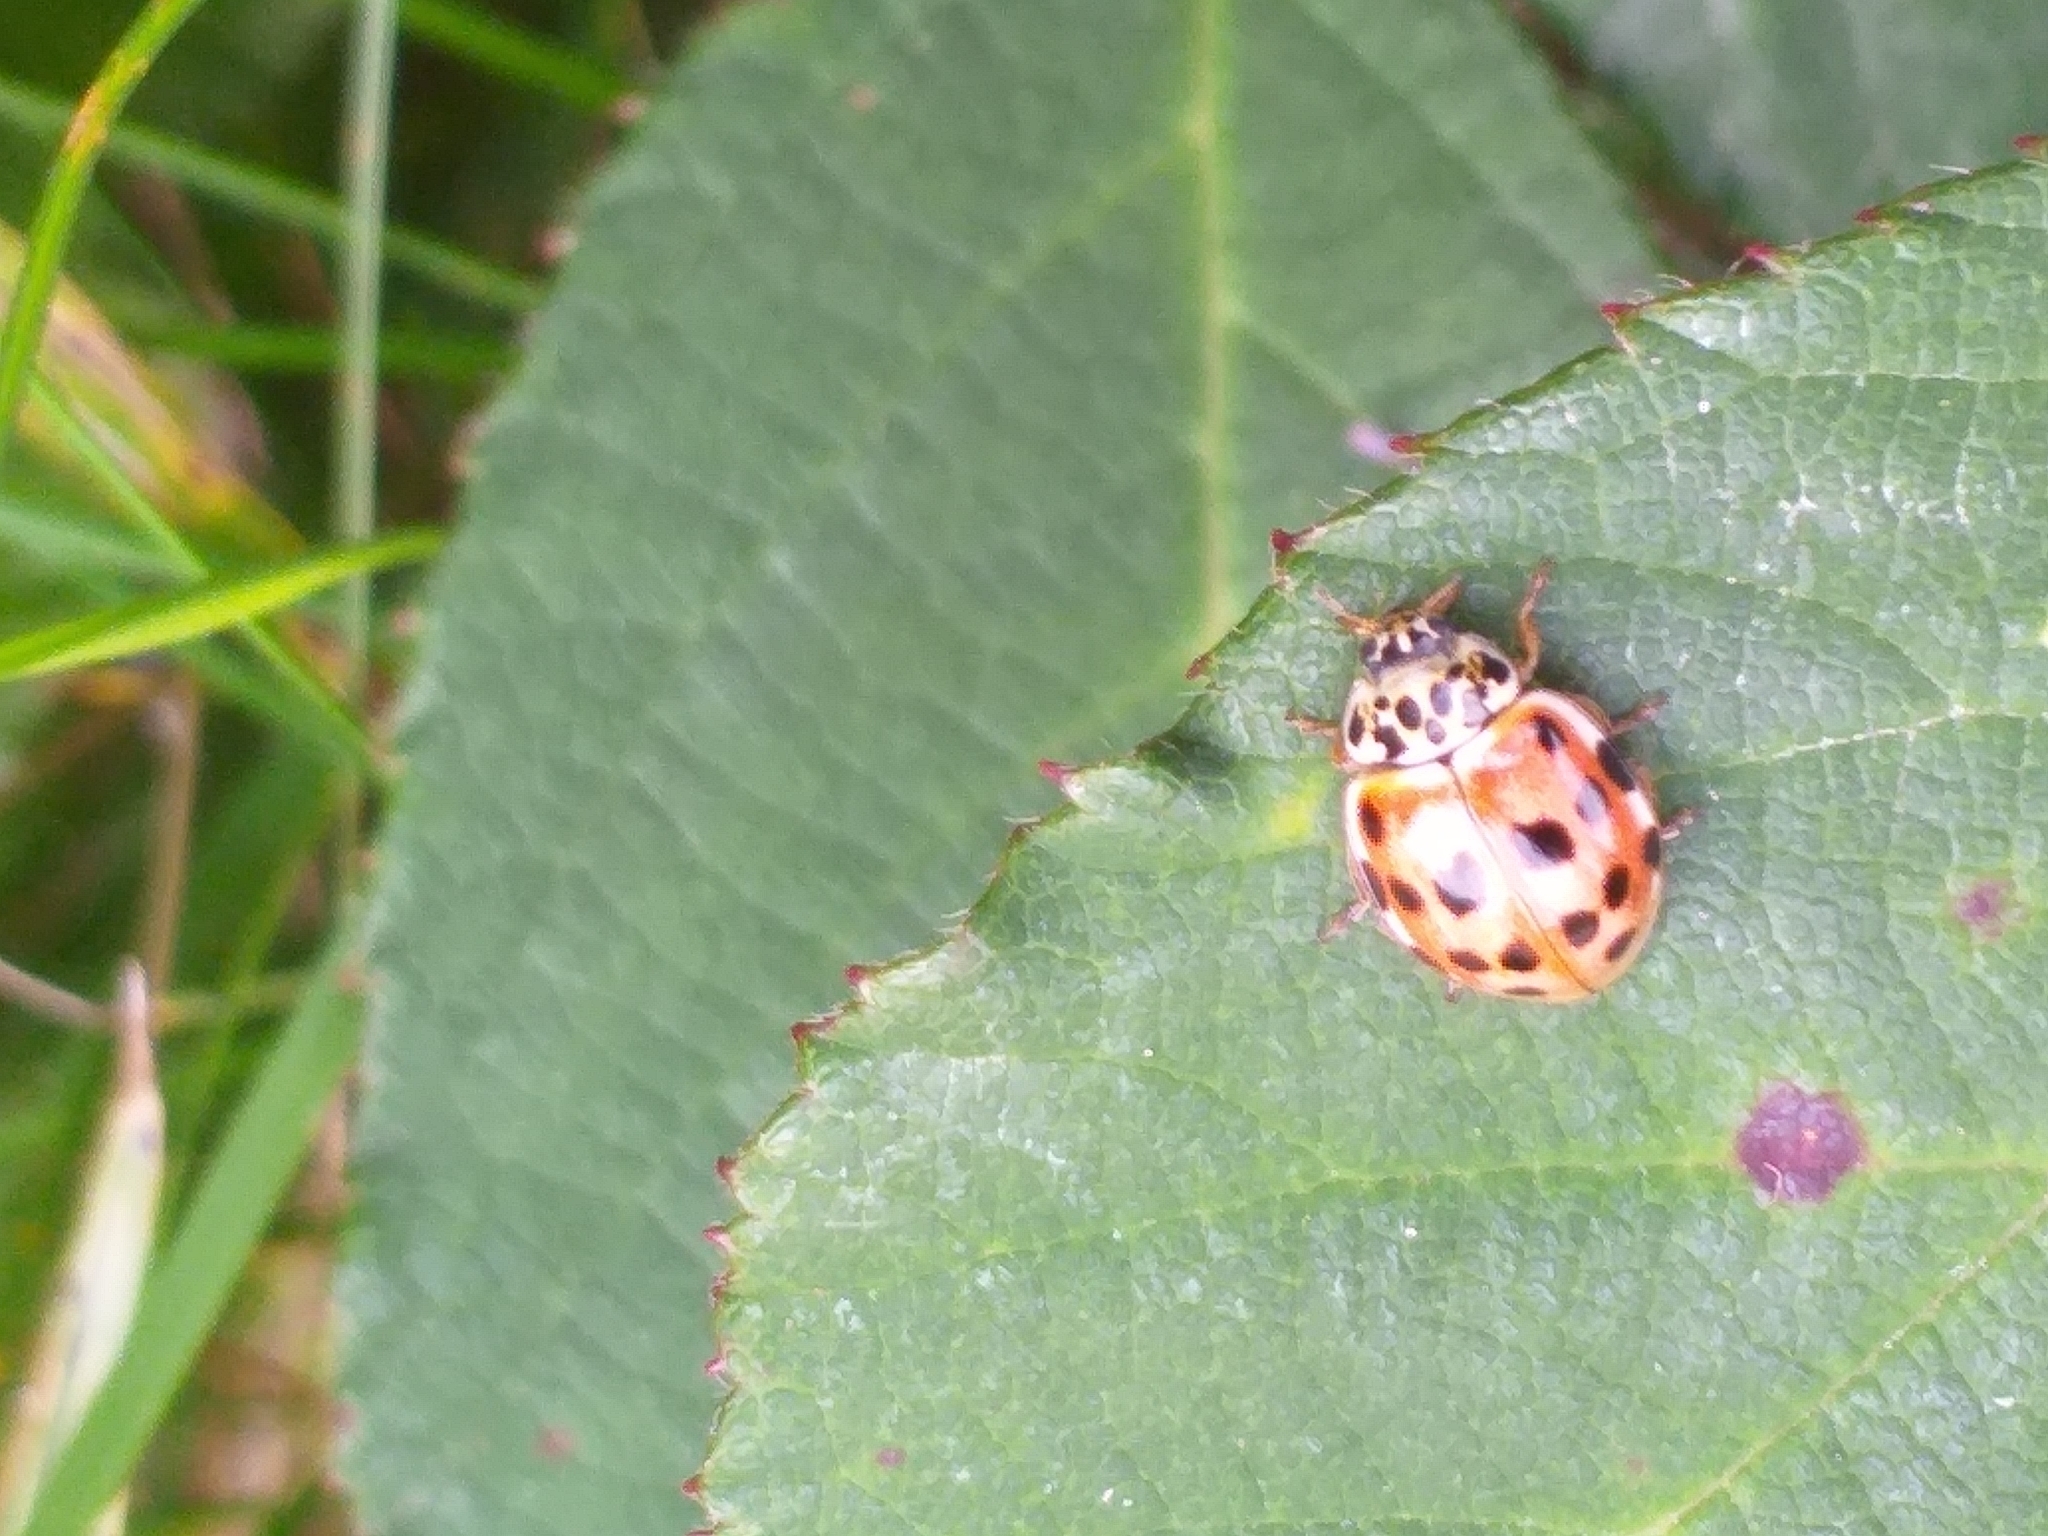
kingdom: Animalia
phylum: Arthropoda
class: Insecta
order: Coleoptera
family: Coccinellidae
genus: Harmonia
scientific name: Harmonia quadripunctata
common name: Cream-streaked ladybird
